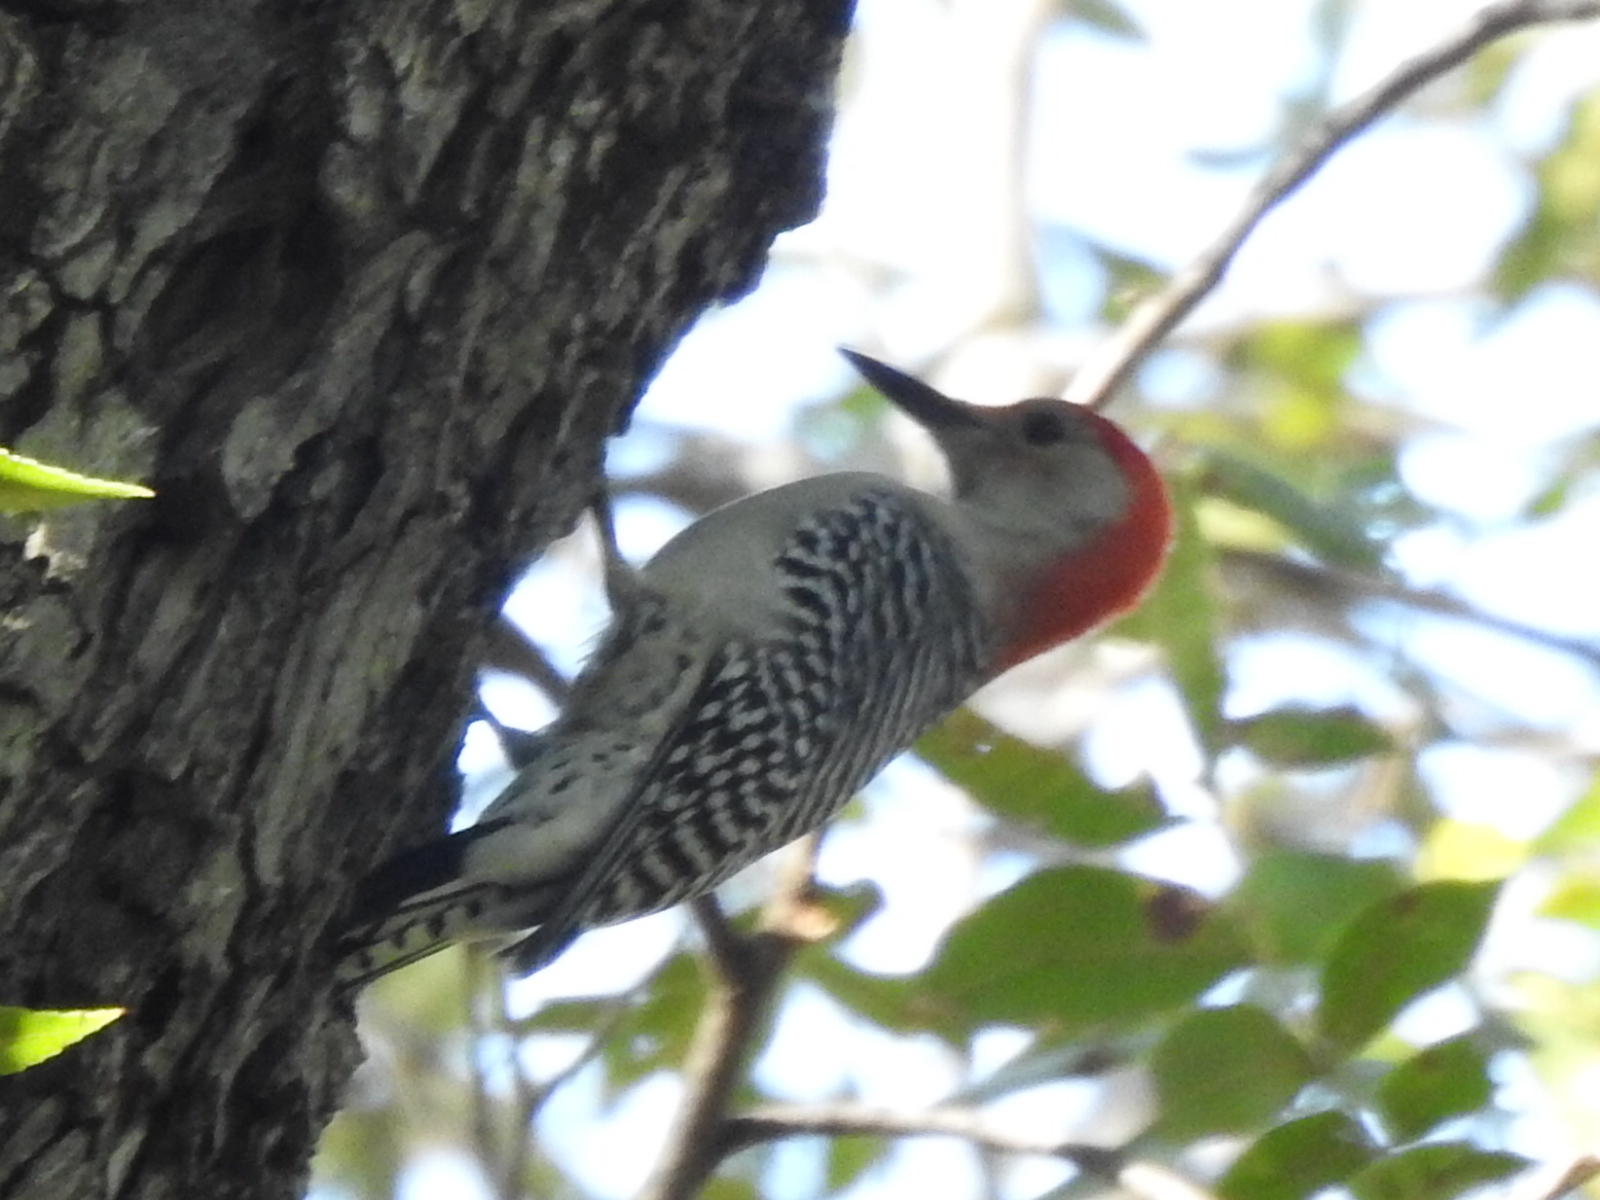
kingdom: Animalia
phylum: Chordata
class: Aves
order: Piciformes
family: Picidae
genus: Melanerpes
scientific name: Melanerpes carolinus
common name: Red-bellied woodpecker
